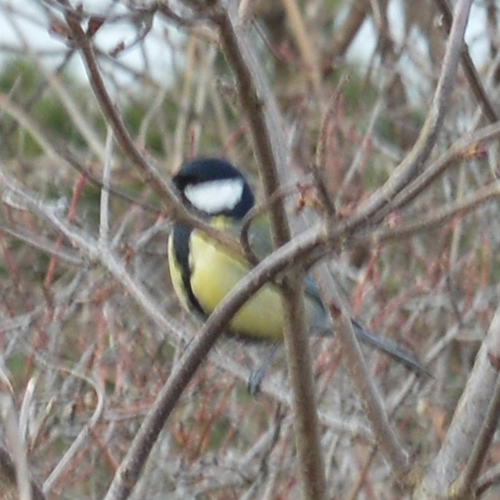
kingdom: Animalia
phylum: Chordata
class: Aves
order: Passeriformes
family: Paridae
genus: Parus
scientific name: Parus major
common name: Great tit
